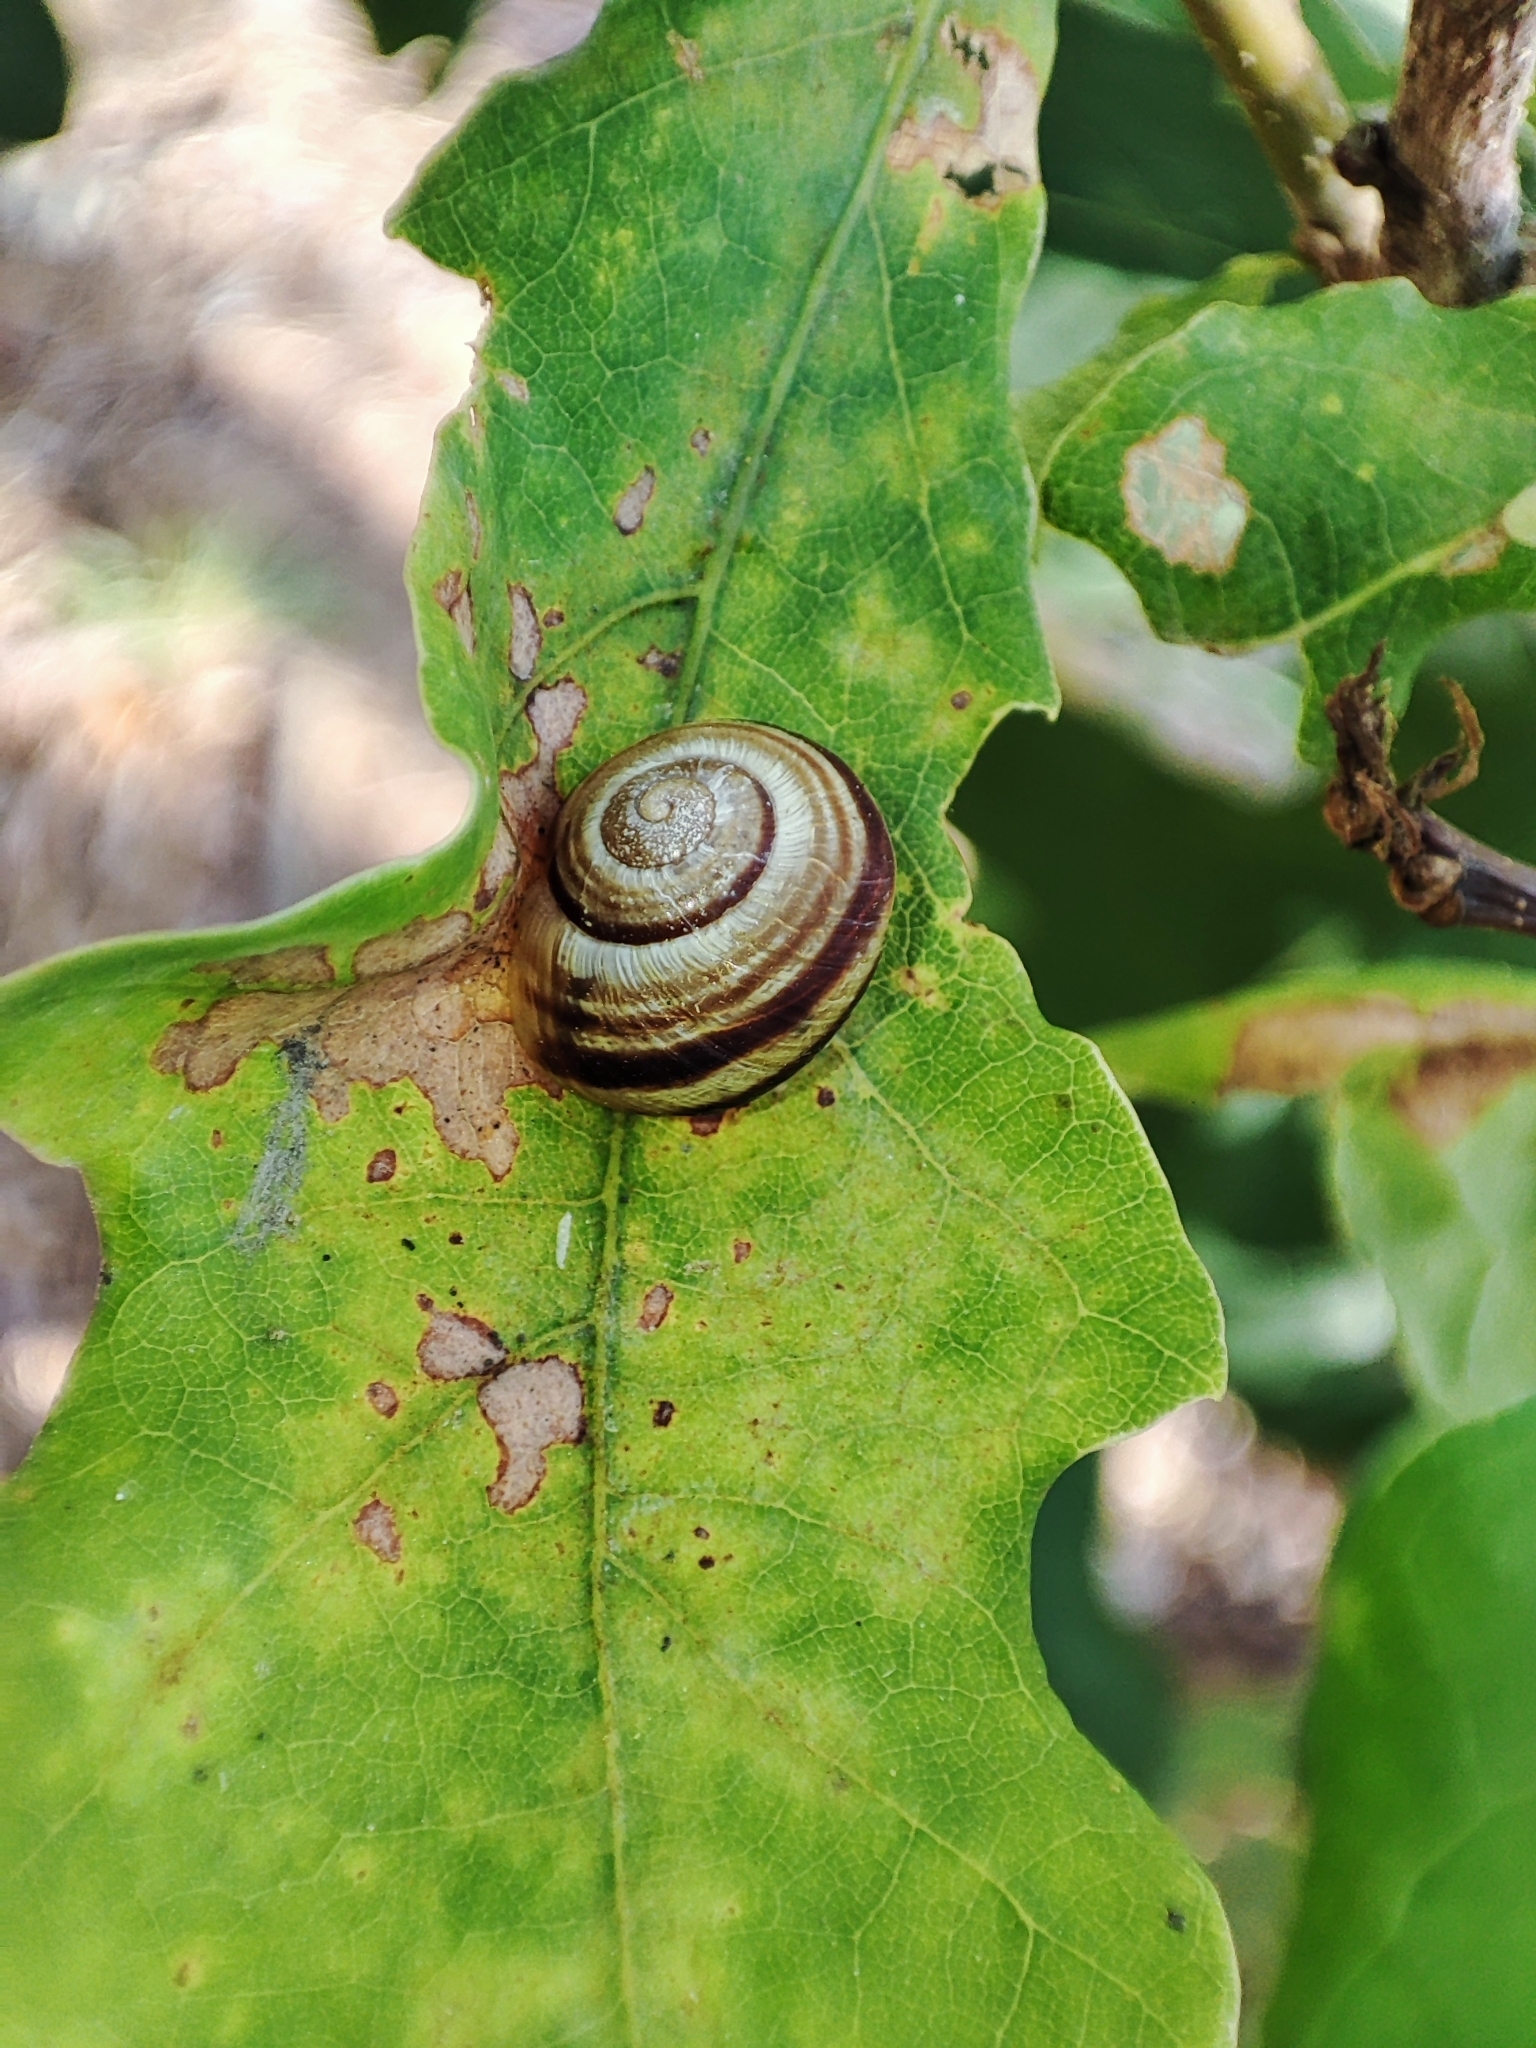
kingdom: Animalia
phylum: Mollusca
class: Gastropoda
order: Stylommatophora
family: Helicidae
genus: Caucasotachea
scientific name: Caucasotachea vindobonensis
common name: European helicid land snail
